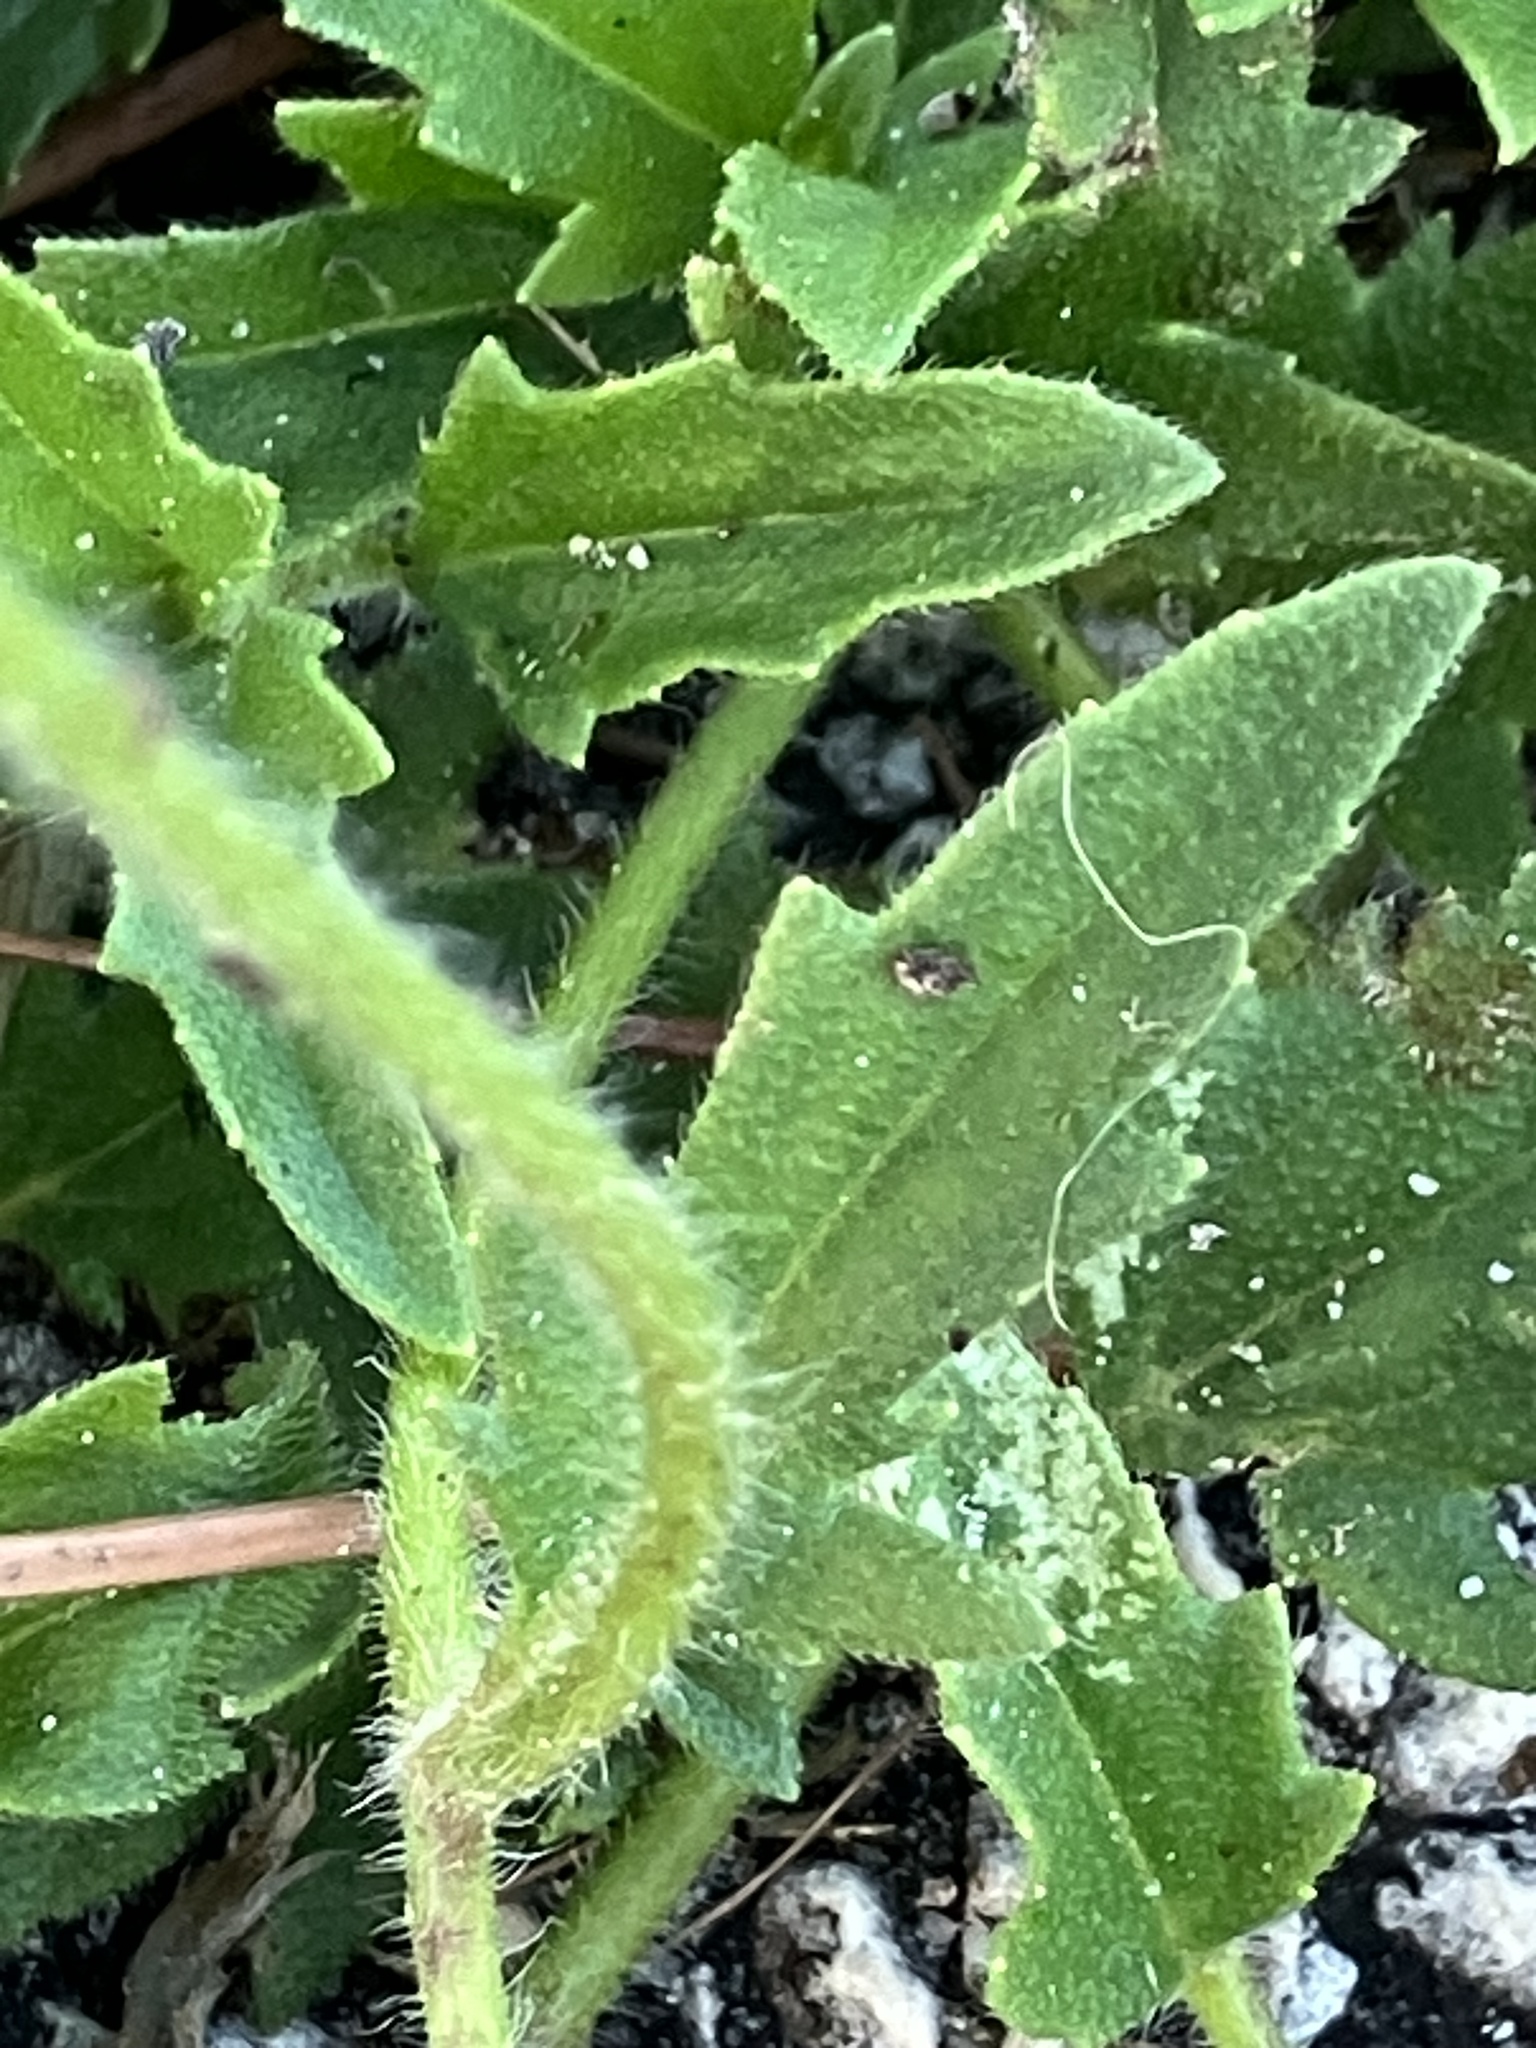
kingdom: Plantae
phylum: Tracheophyta
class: Magnoliopsida
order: Asterales
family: Asteraceae
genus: Tridax
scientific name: Tridax procumbens
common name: Coatbuttons
